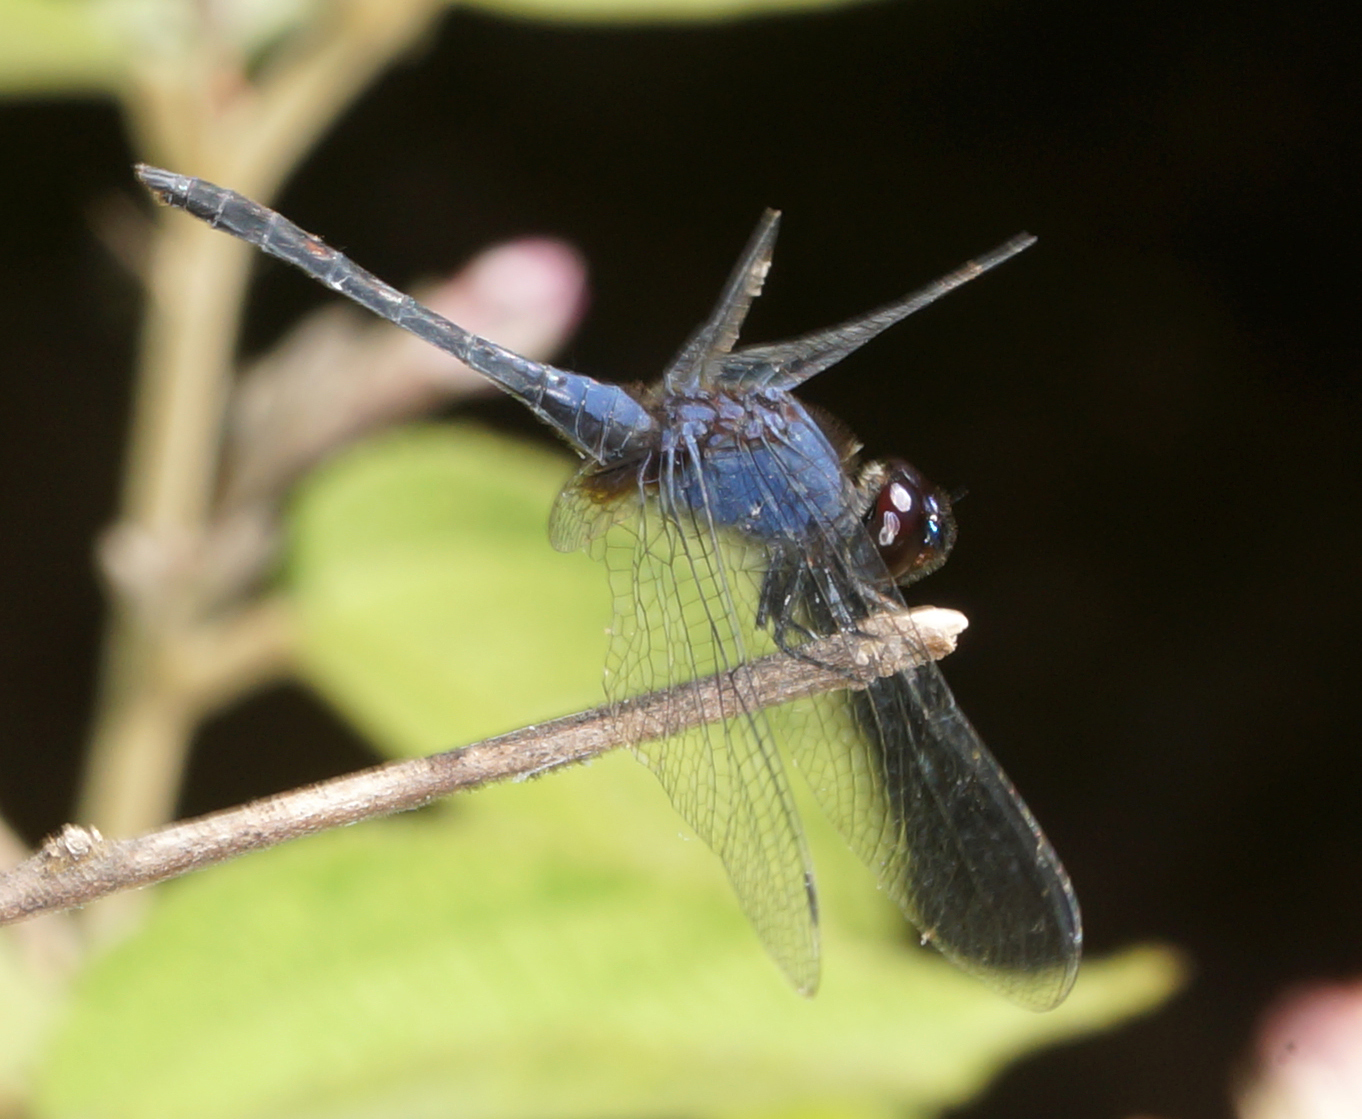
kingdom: Animalia
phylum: Arthropoda
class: Insecta
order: Odonata
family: Libellulidae
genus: Trithemis
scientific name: Trithemis festiva
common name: Indigo dropwing
